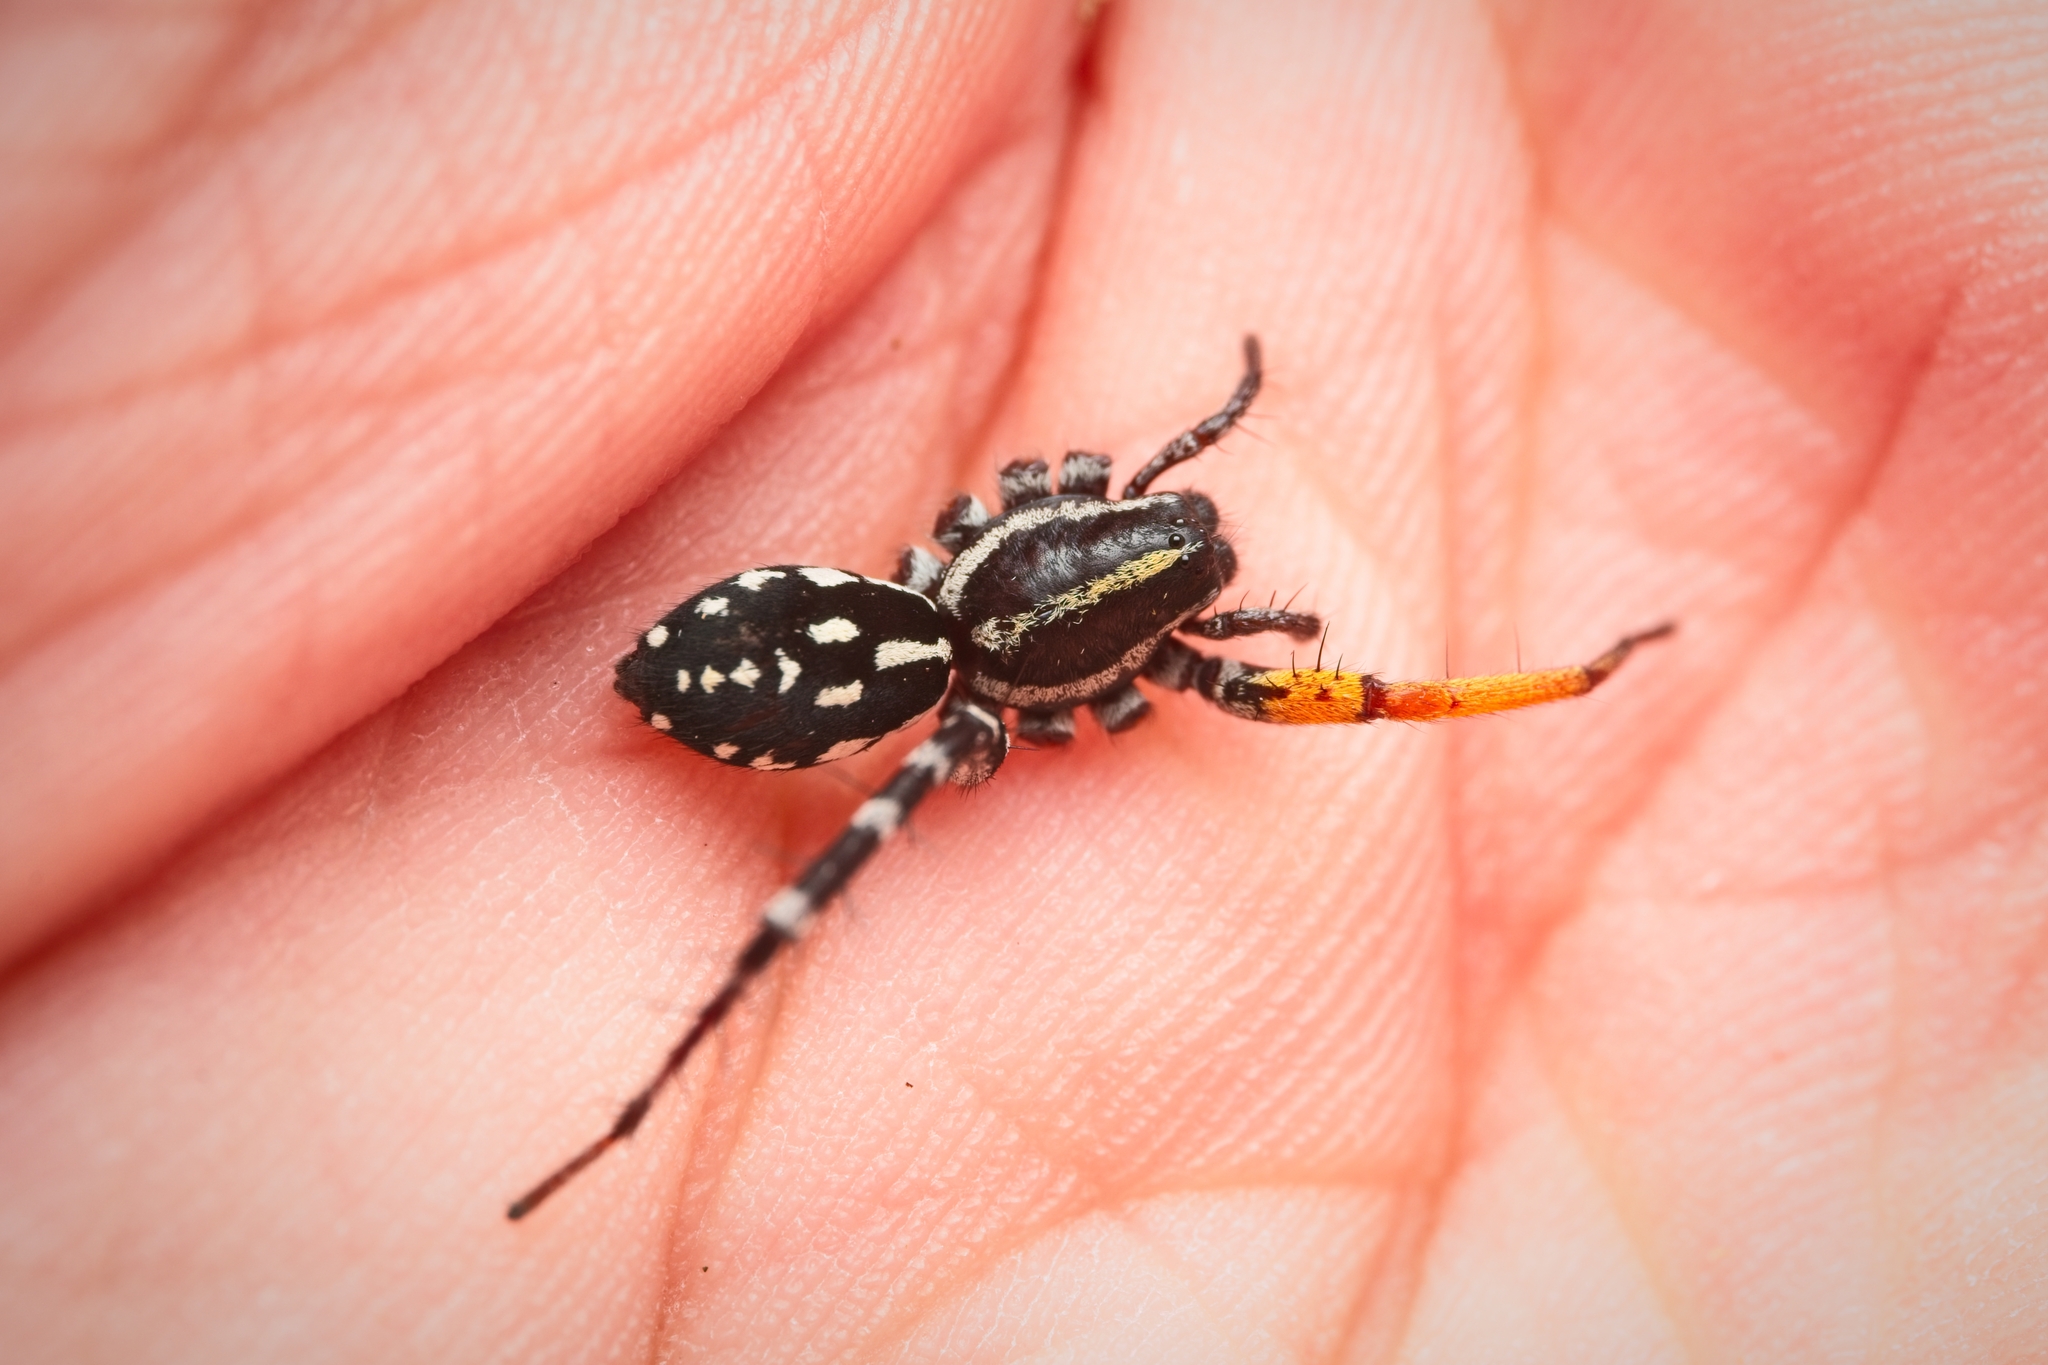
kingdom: Animalia
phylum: Arthropoda
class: Arachnida
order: Araneae
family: Corinnidae
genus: Nyssus
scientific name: Nyssus coloripes
